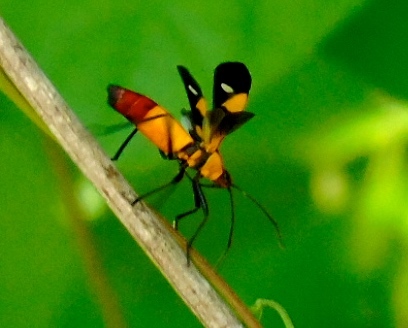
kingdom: Animalia
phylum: Arthropoda
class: Insecta
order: Hemiptera
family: Lygaeidae
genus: Oncopeltus
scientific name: Oncopeltus sexmaculatus
